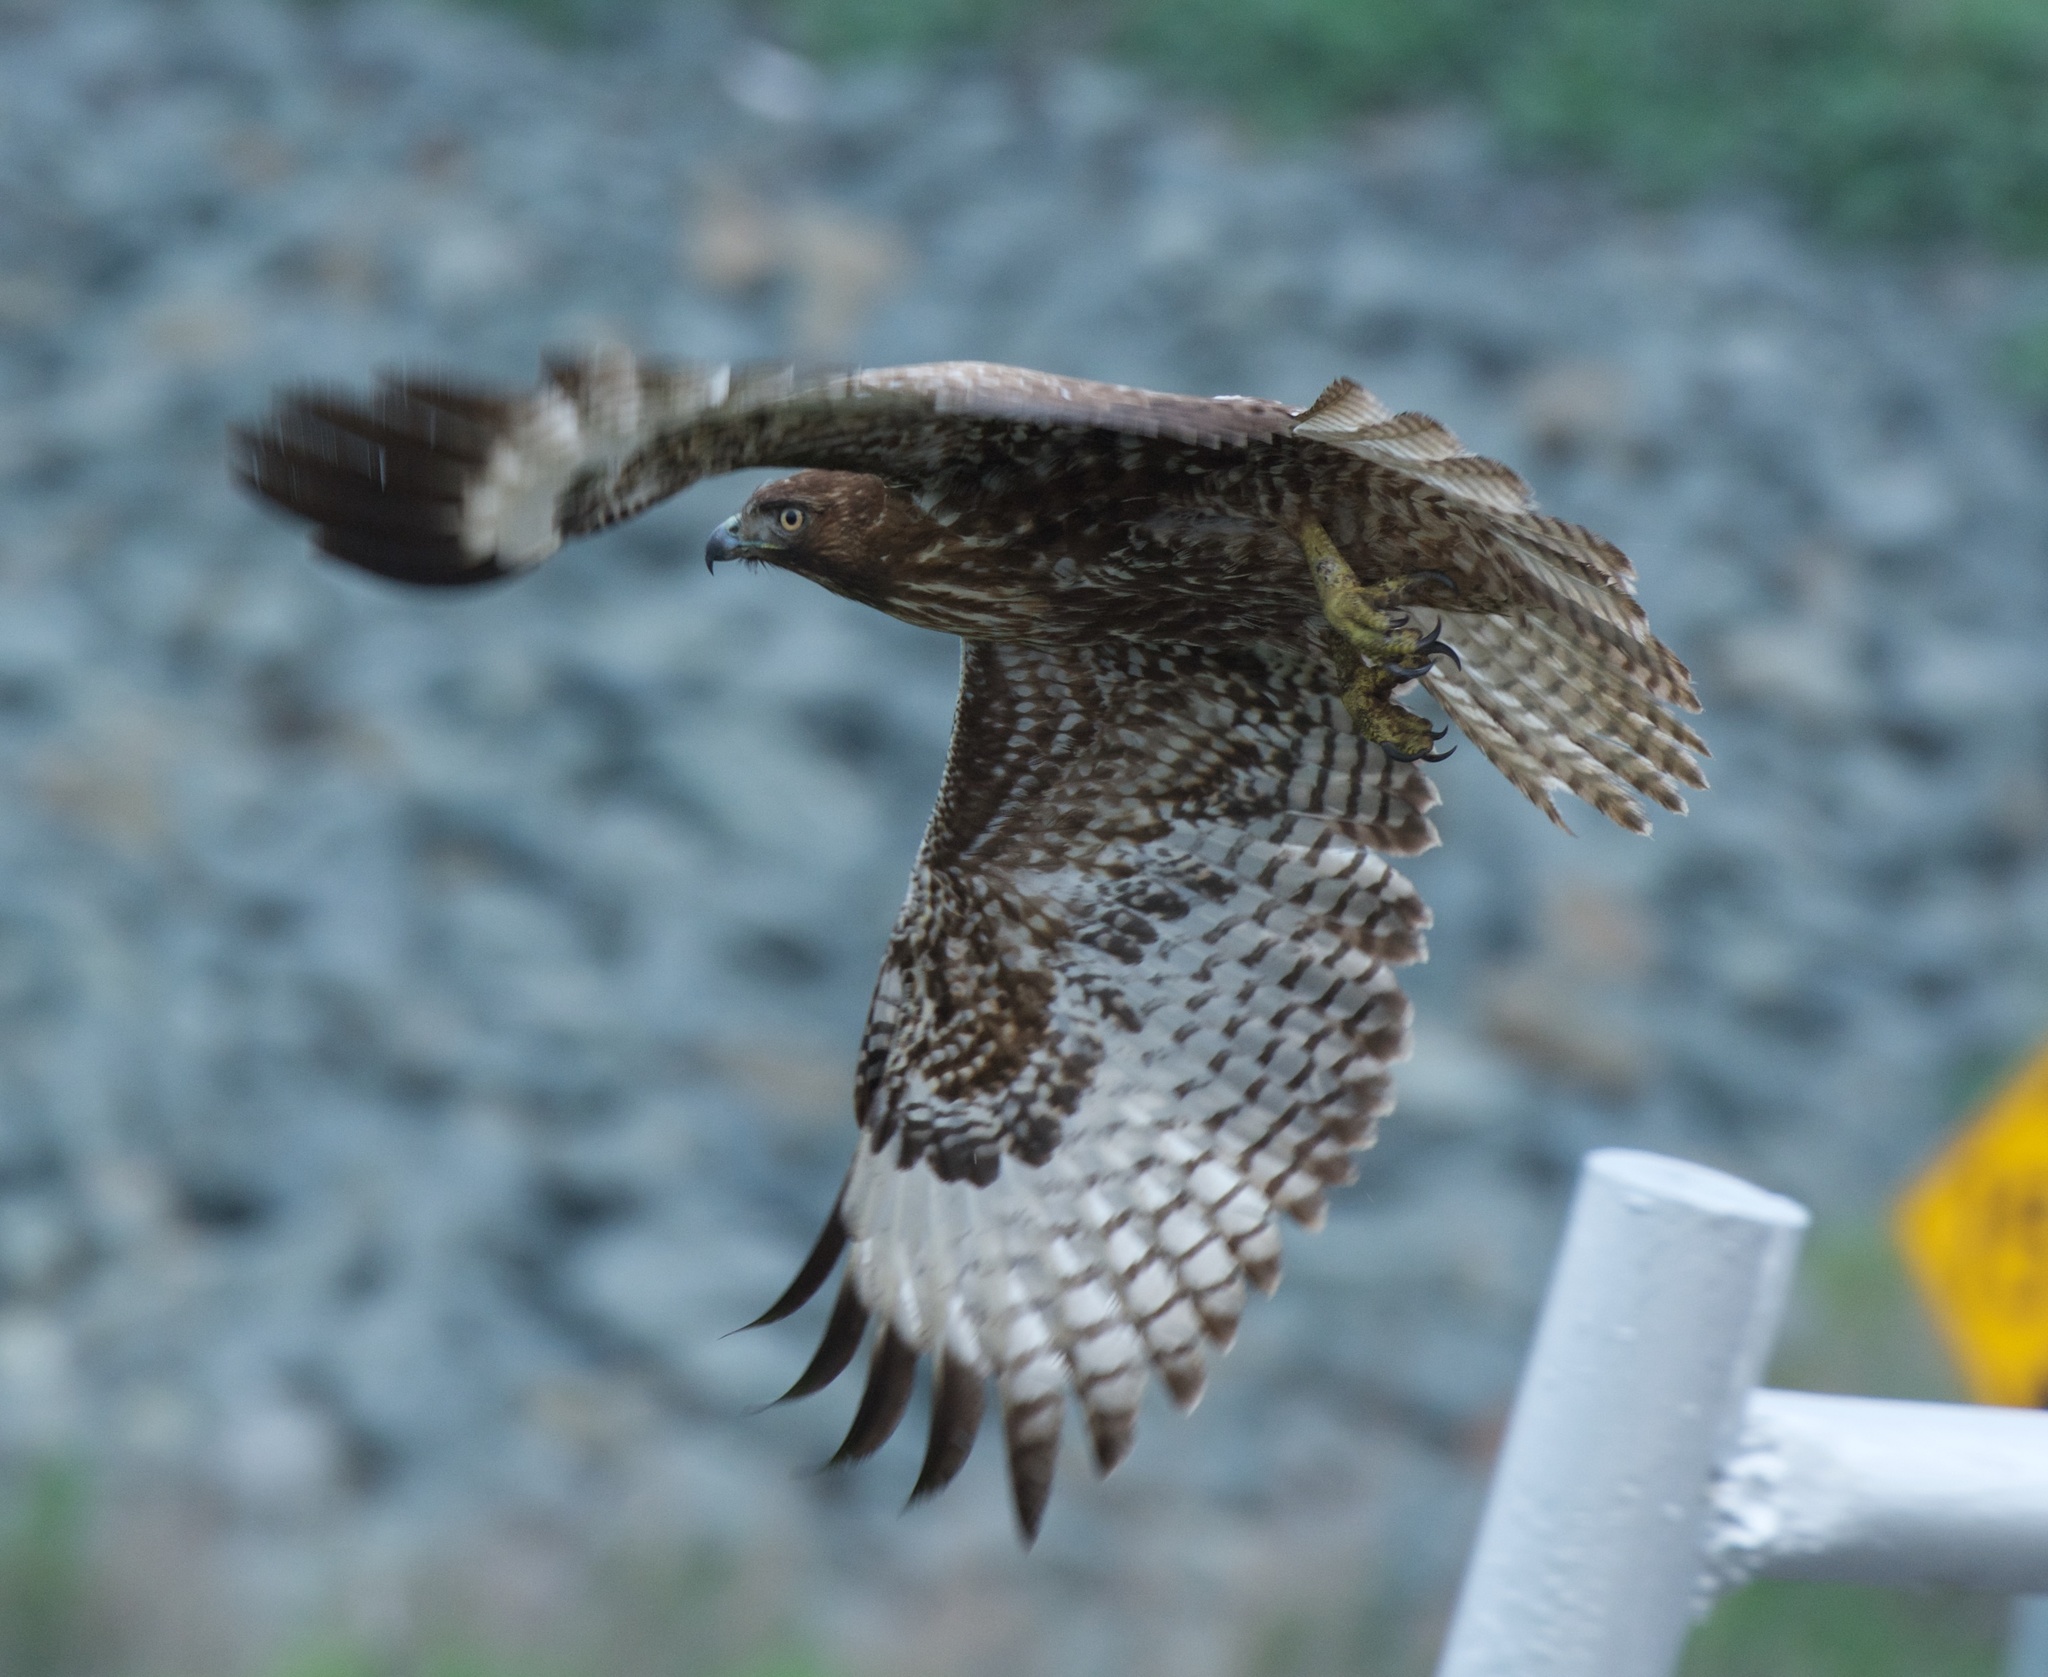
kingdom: Animalia
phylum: Chordata
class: Aves
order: Accipitriformes
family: Accipitridae
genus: Buteo
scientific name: Buteo jamaicensis
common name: Red-tailed hawk
